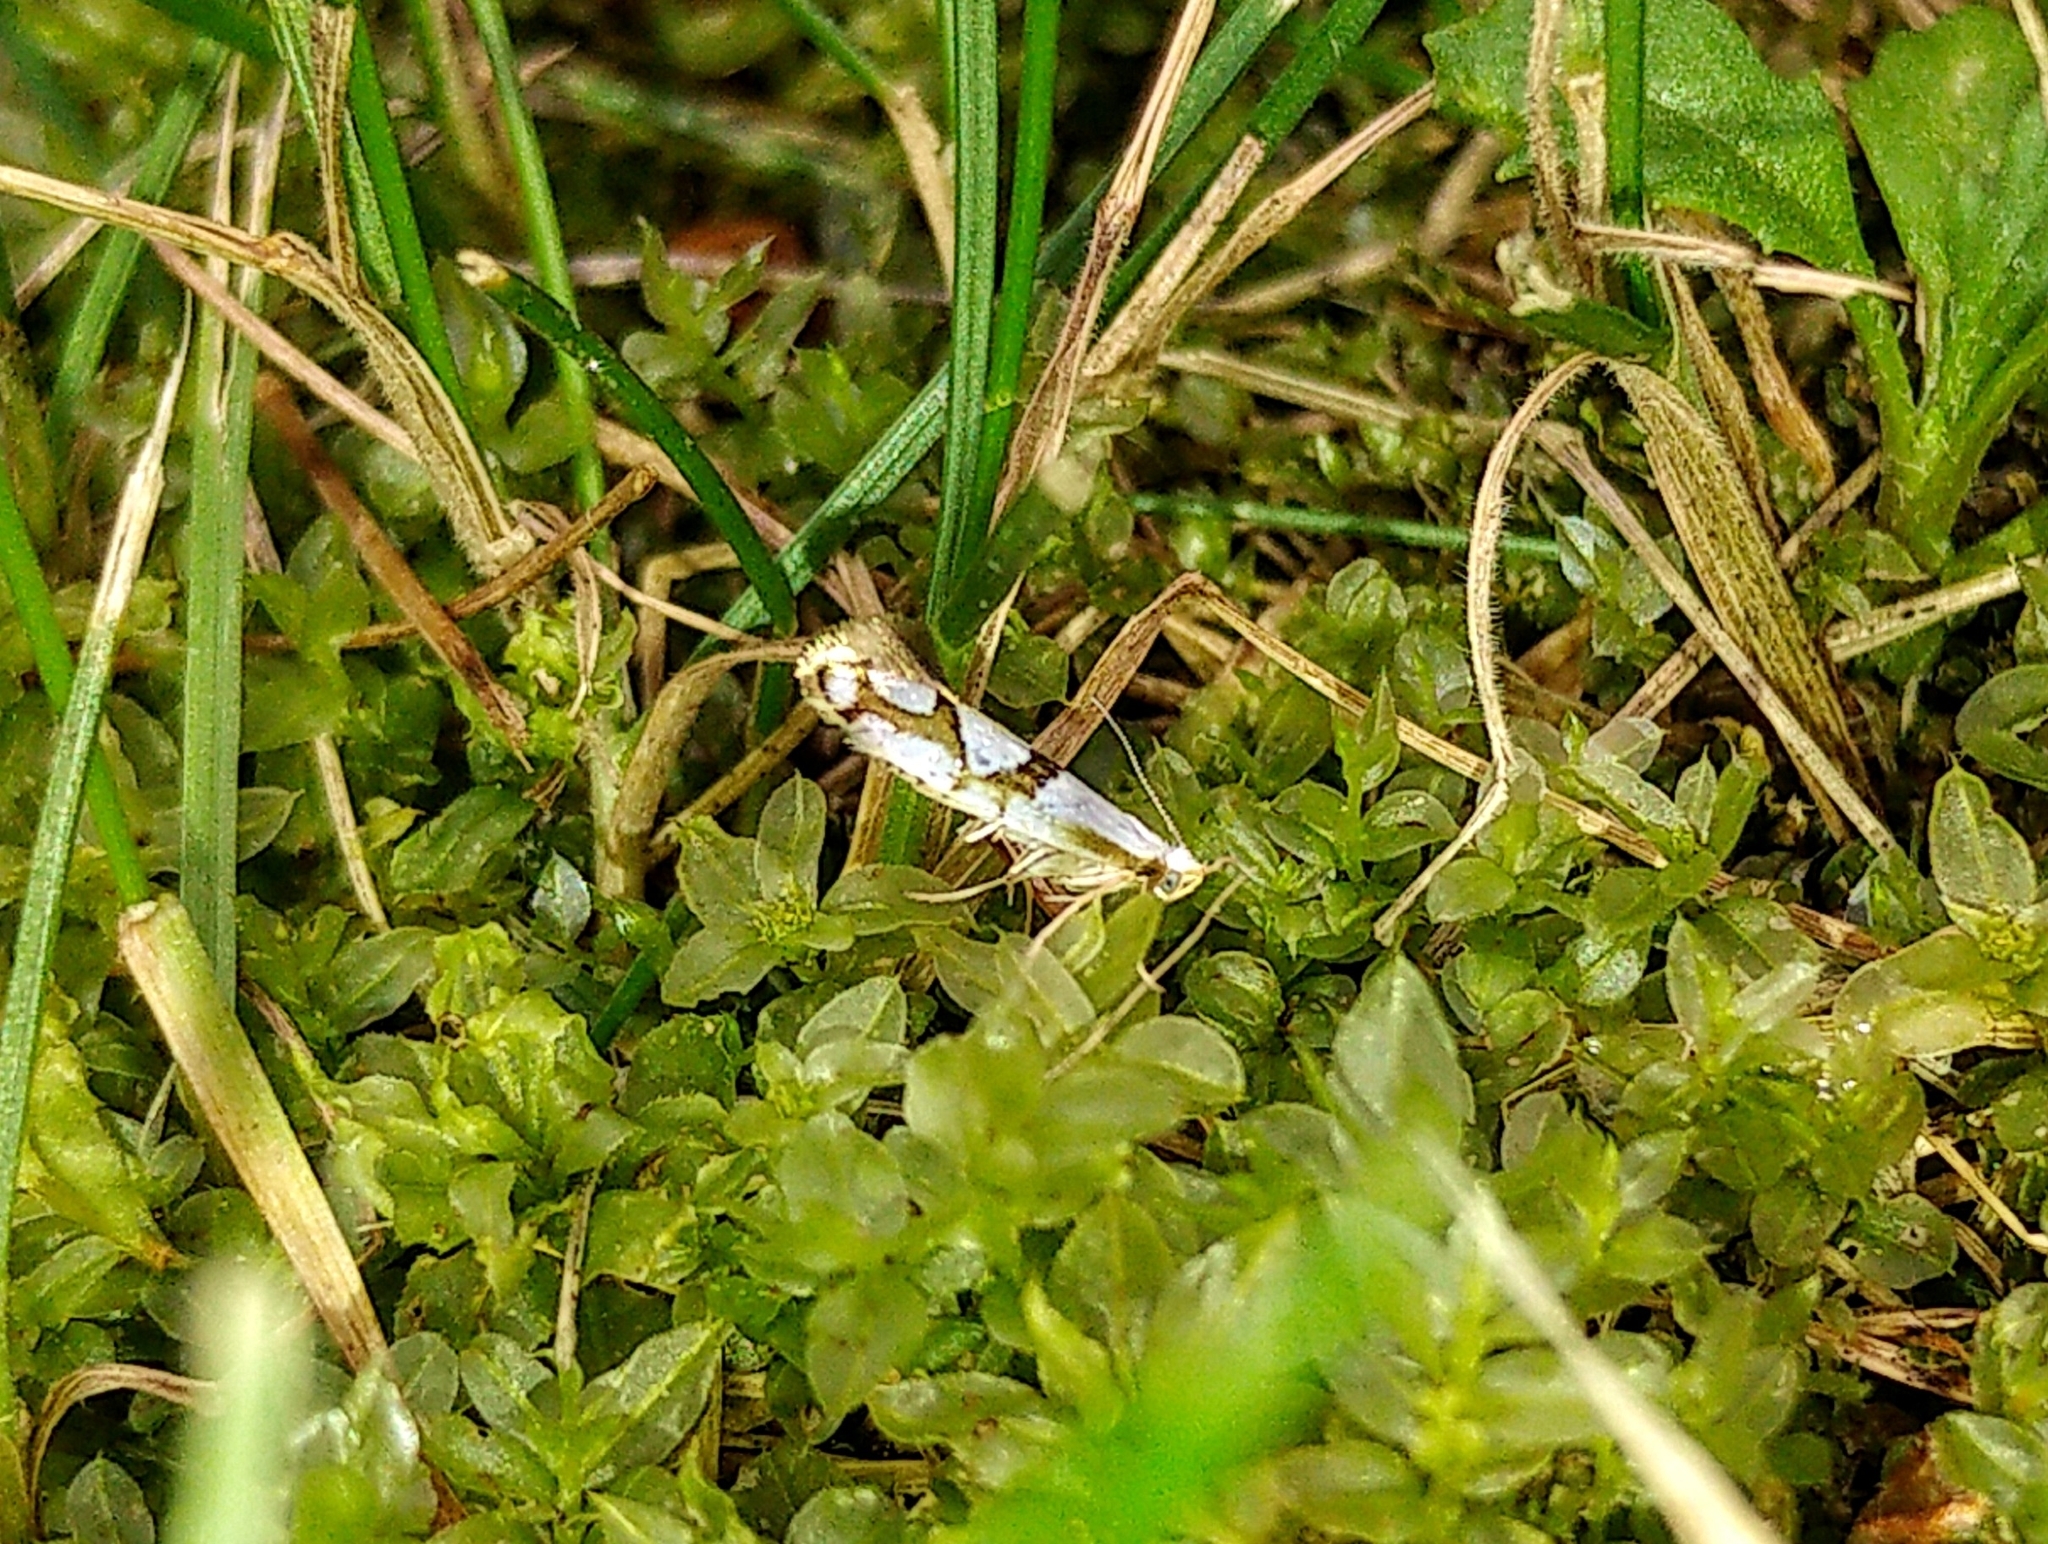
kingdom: Animalia
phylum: Arthropoda
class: Insecta
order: Lepidoptera
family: Argyresthiidae
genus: Argyresthia
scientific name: Argyresthia oreasella
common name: Cherry shoot borer moth
